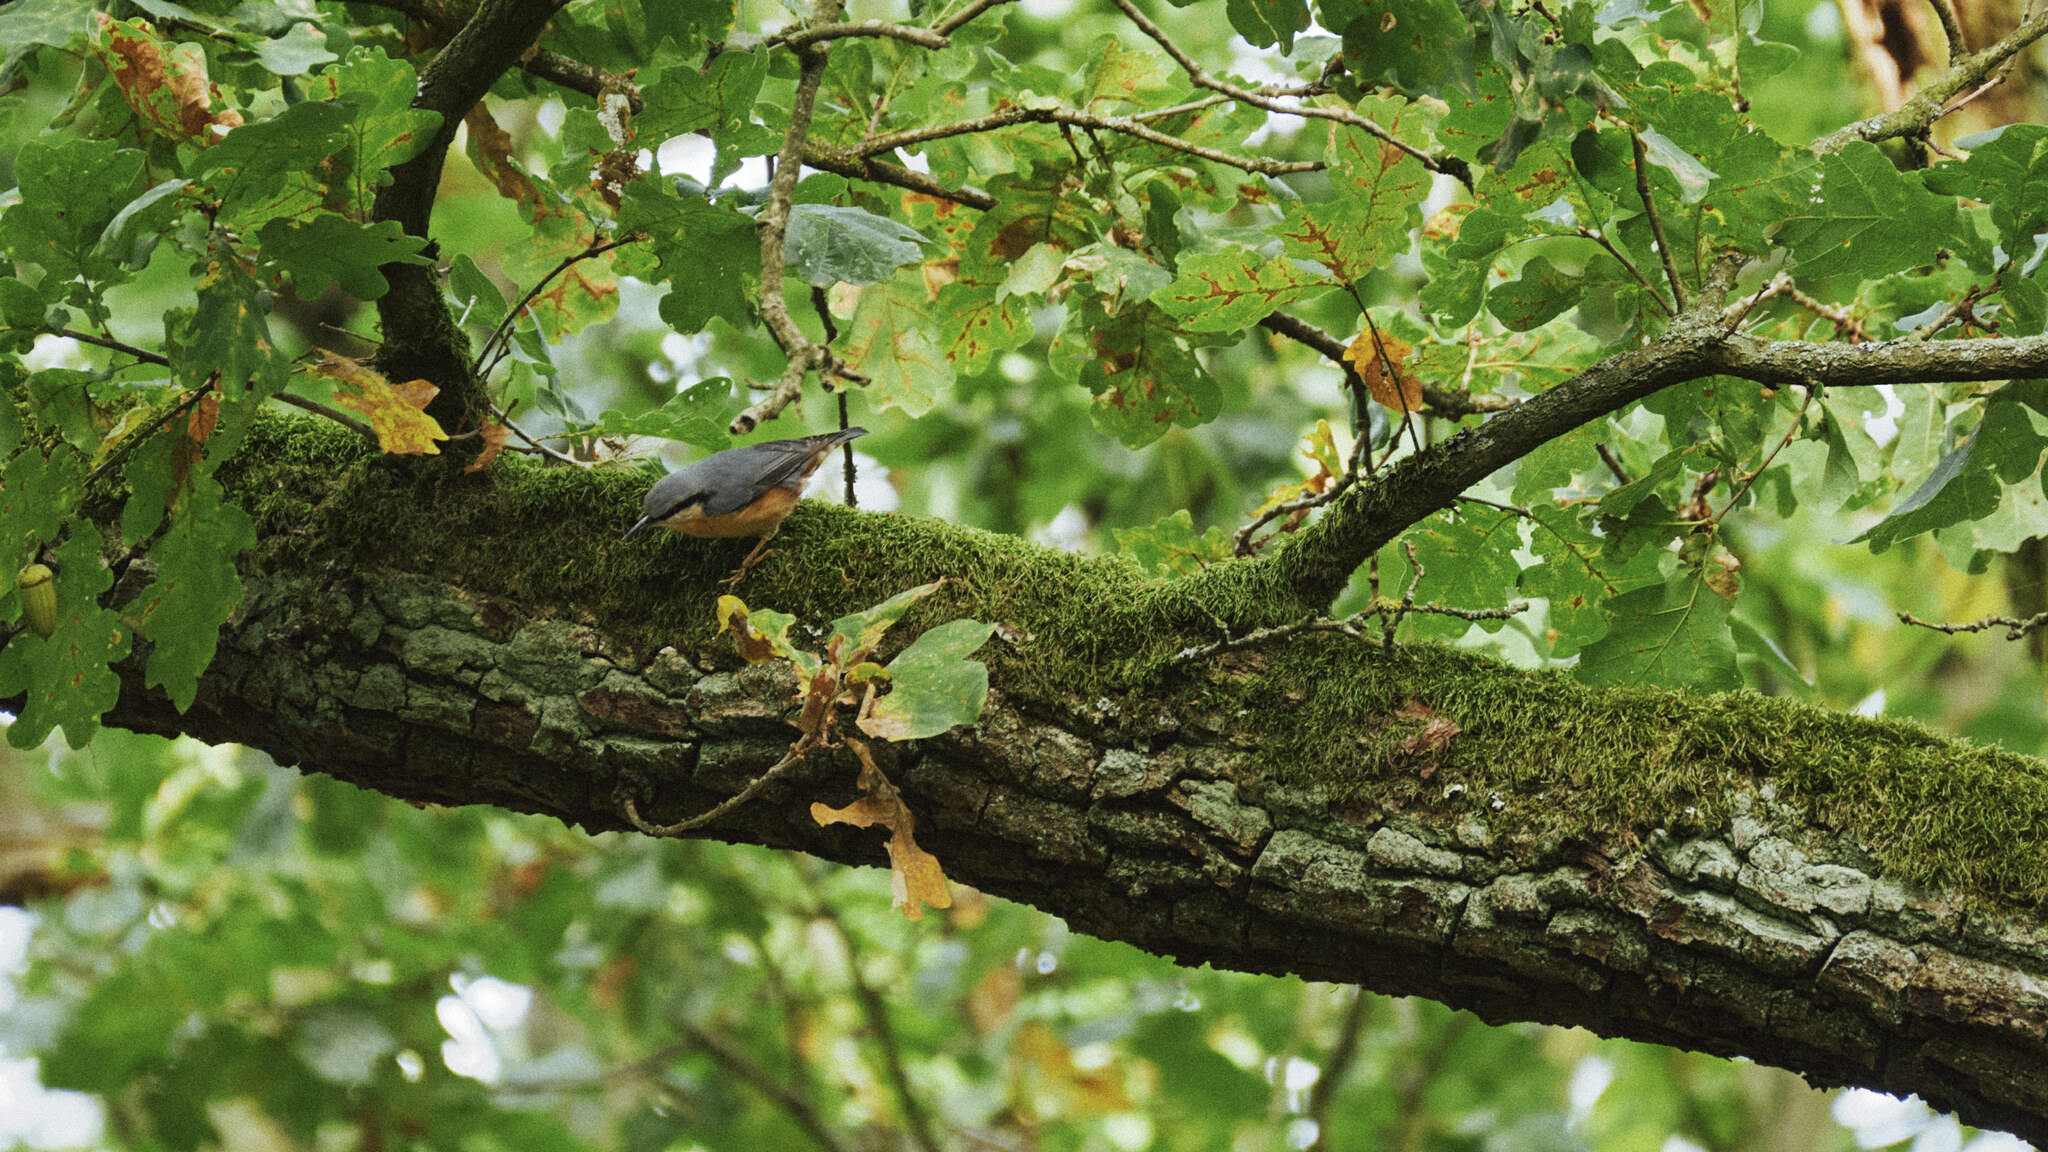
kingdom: Animalia
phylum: Chordata
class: Aves
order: Passeriformes
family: Sittidae
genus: Sitta
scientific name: Sitta europaea
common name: Eurasian nuthatch
